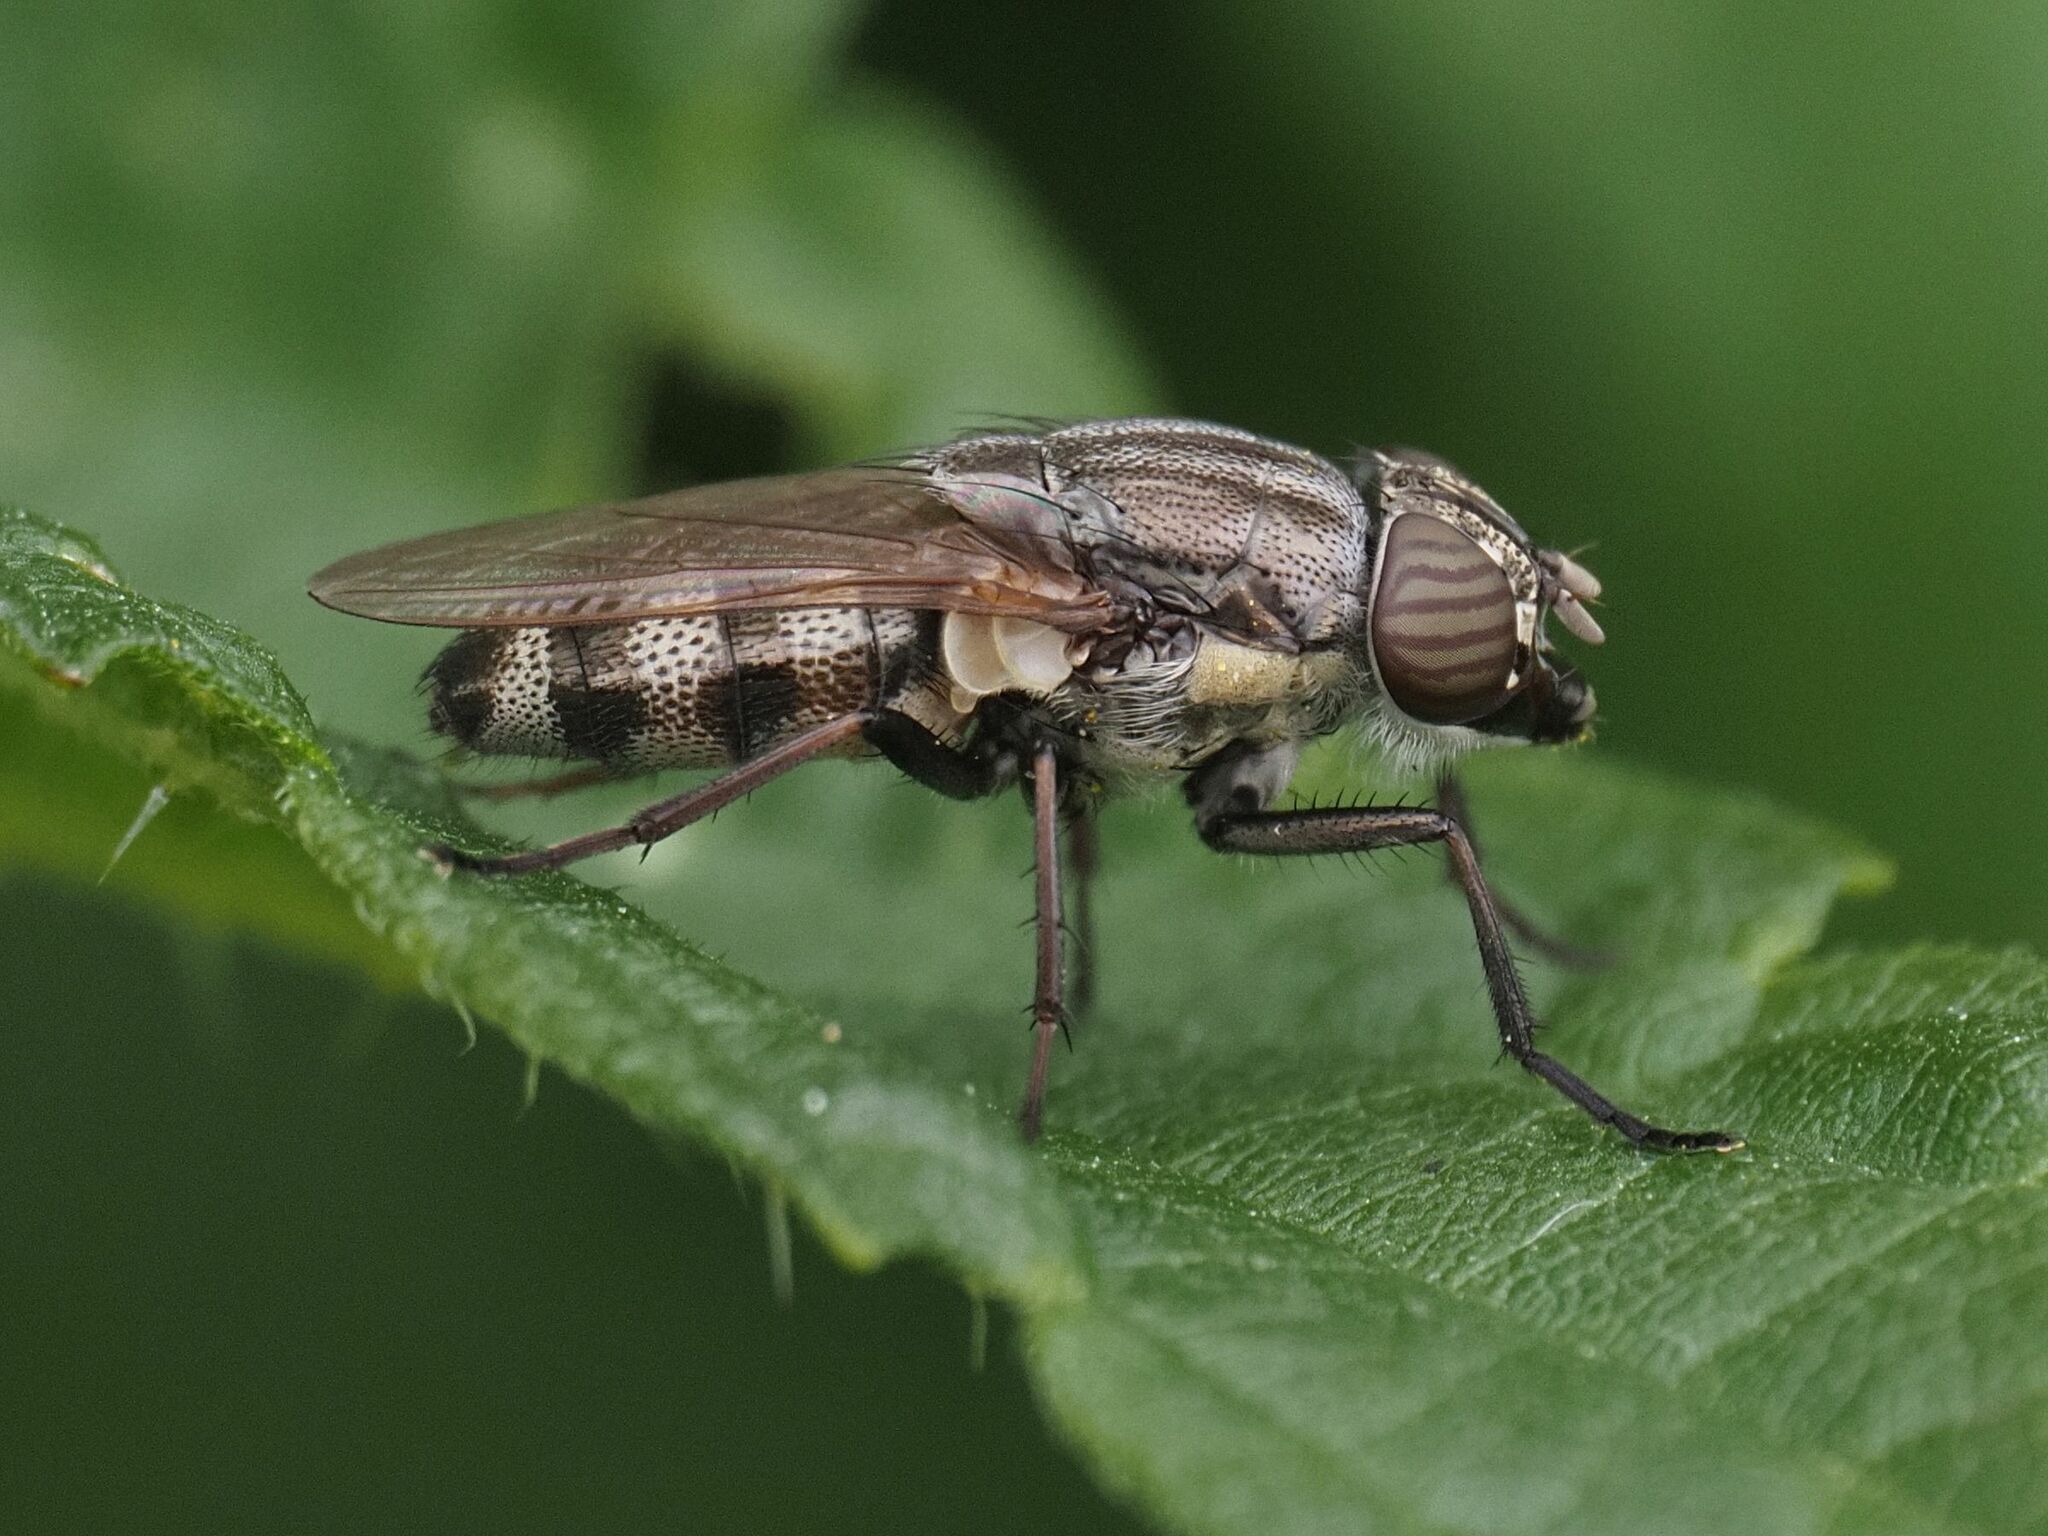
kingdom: Animalia
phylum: Arthropoda
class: Insecta
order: Diptera
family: Calliphoridae
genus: Stomorhina
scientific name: Stomorhina lunata
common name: Locust blowfly
